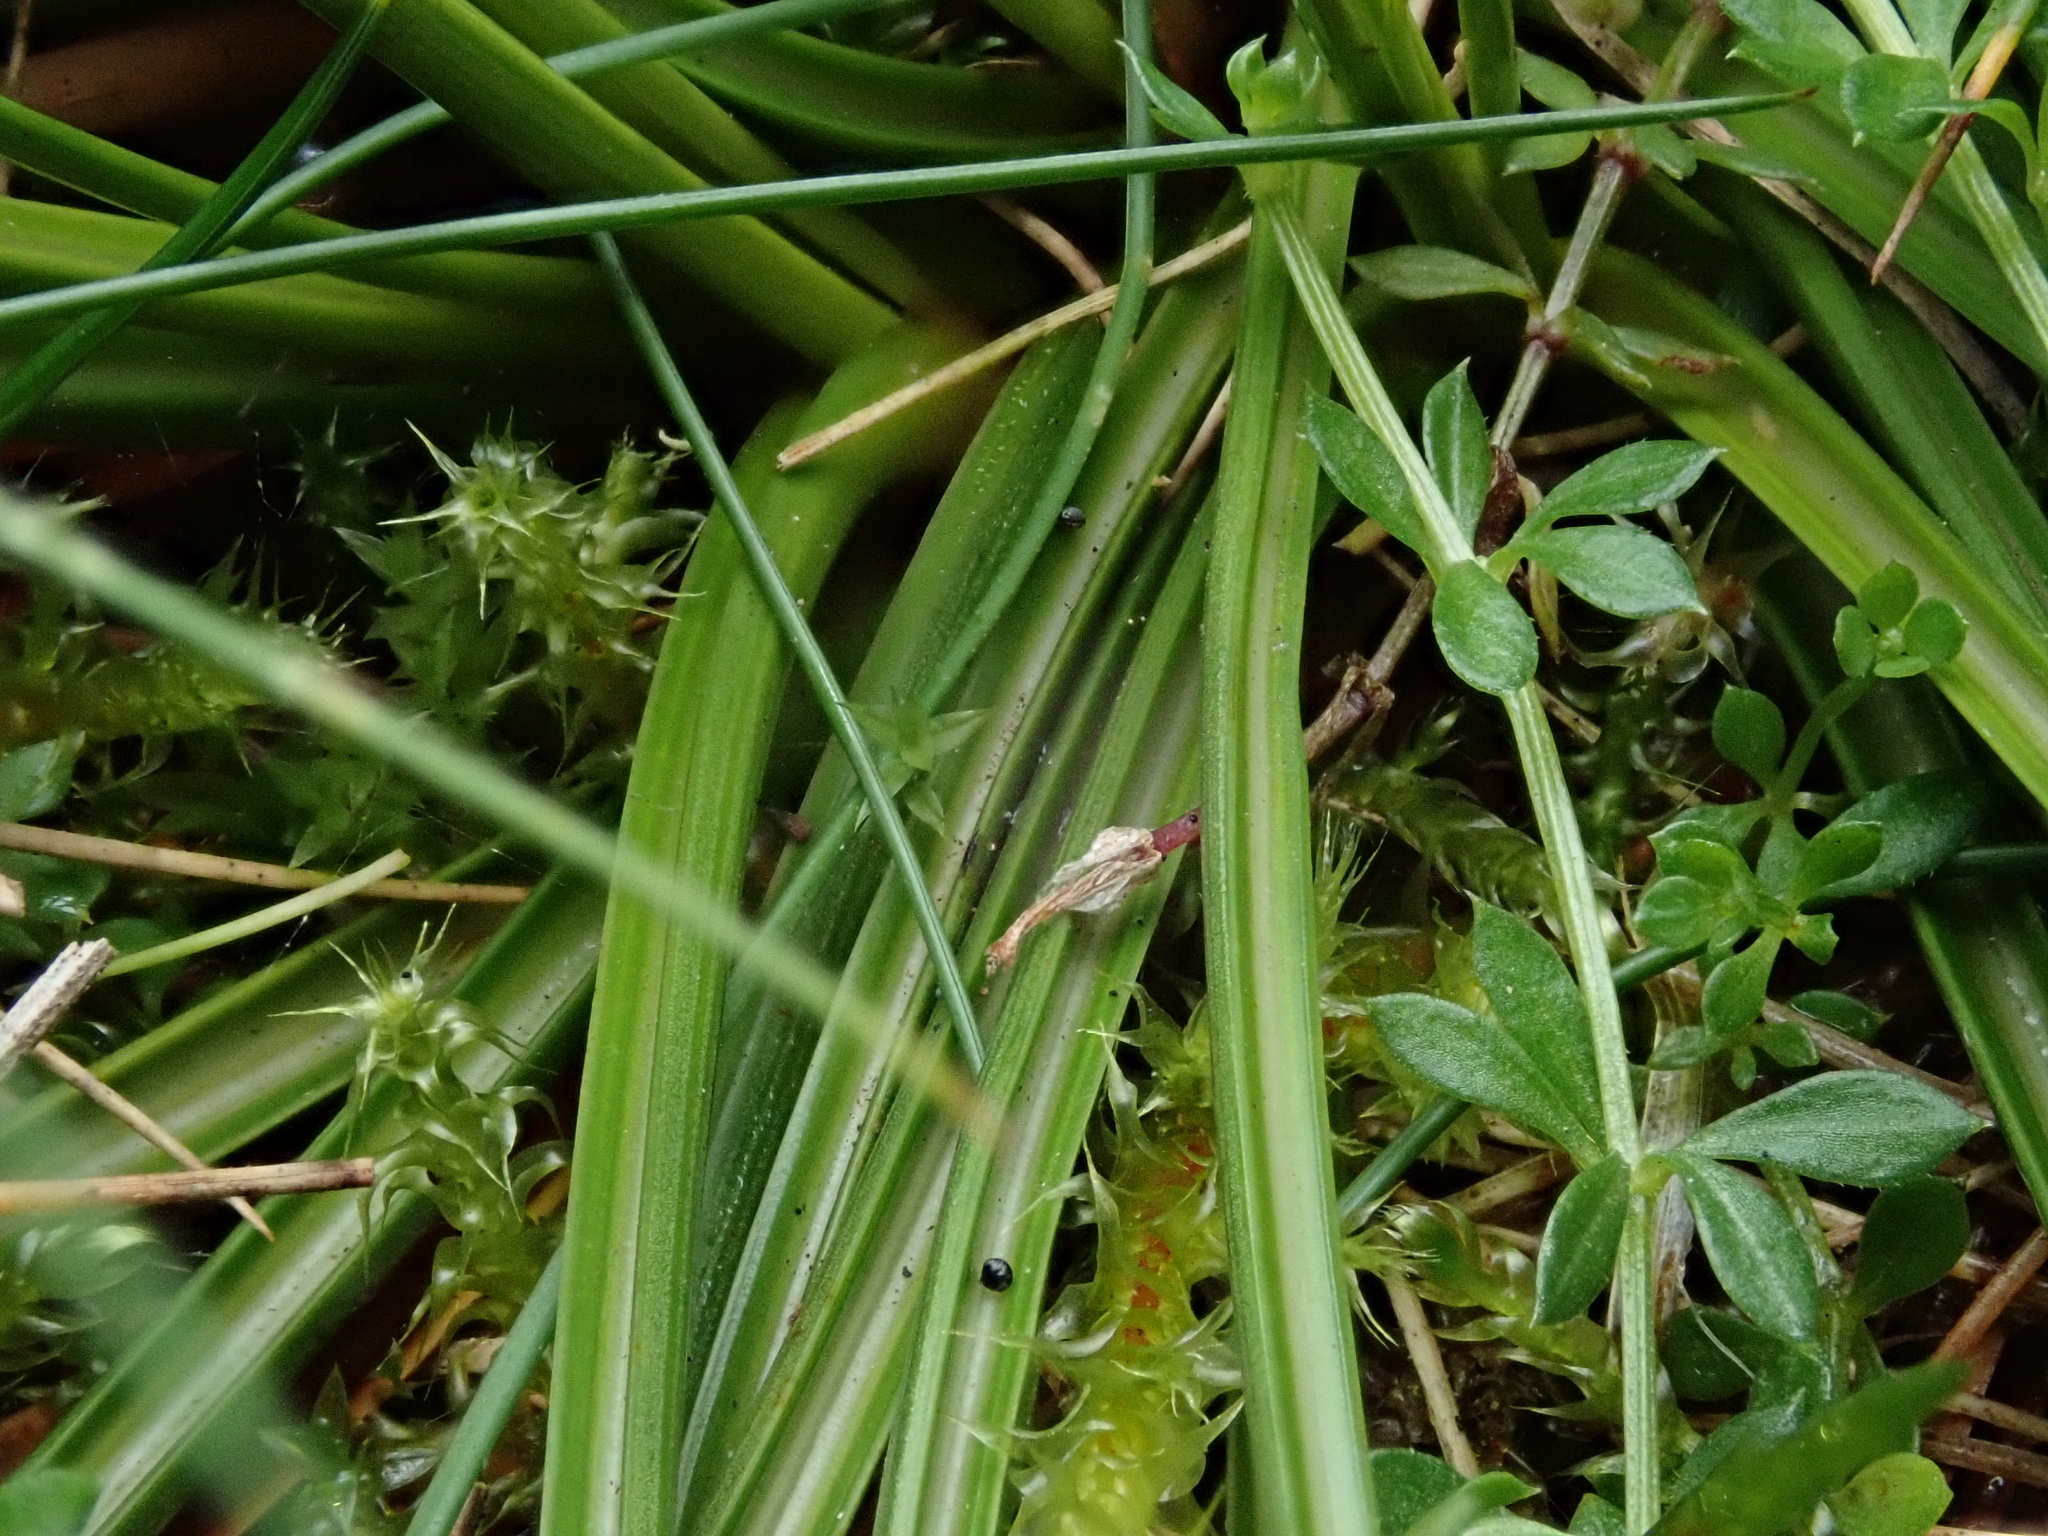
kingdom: Plantae
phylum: Tracheophyta
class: Liliopsida
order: Poales
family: Juncaceae
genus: Juncus
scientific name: Juncus squarrosus
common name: Heath rush
